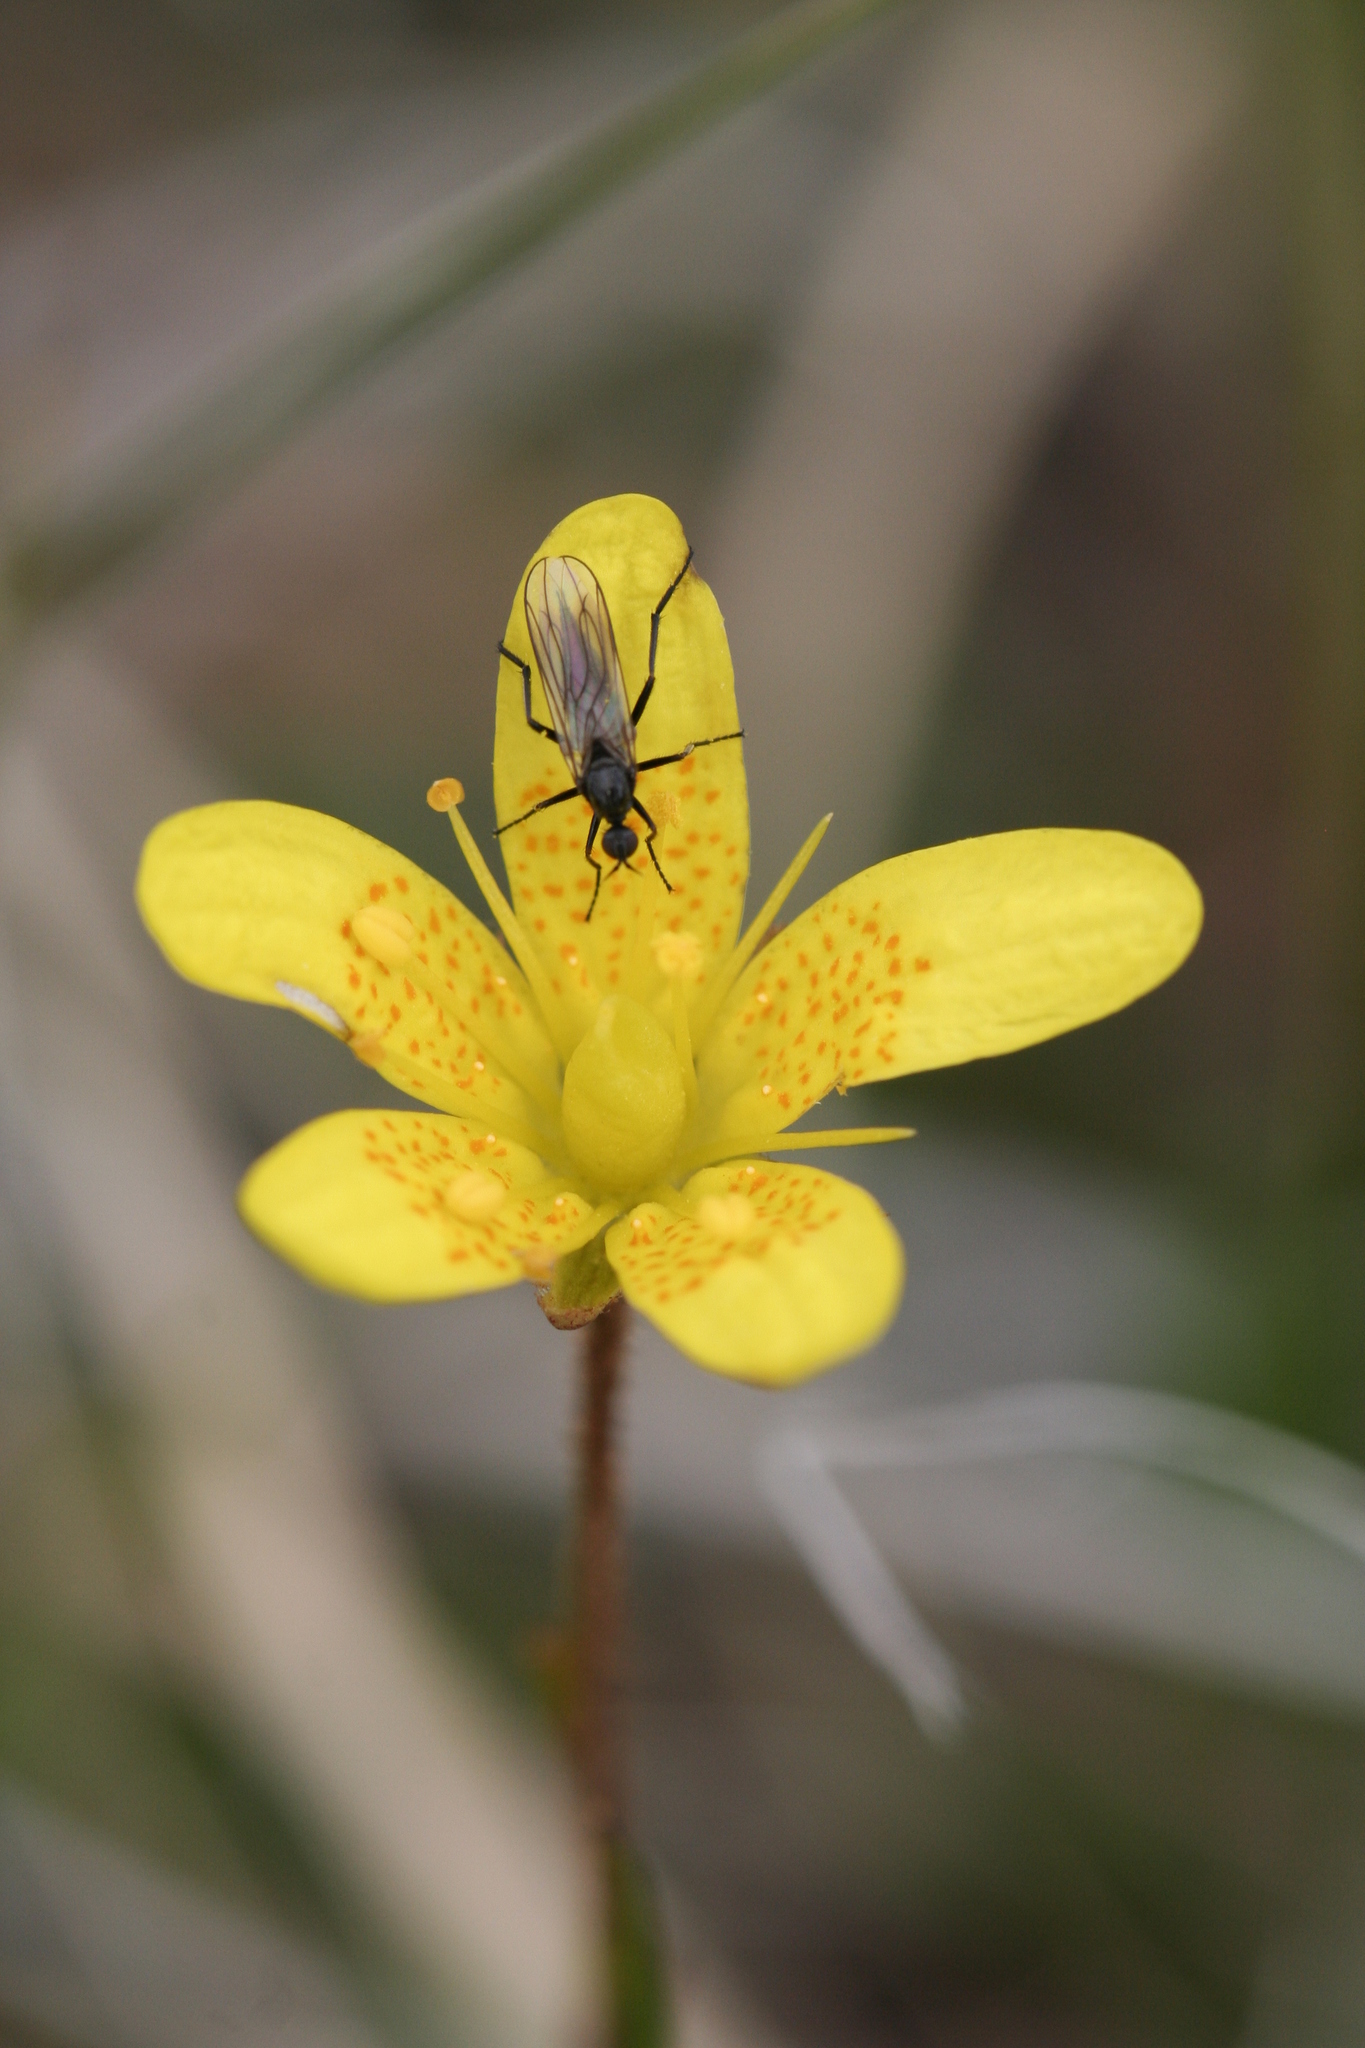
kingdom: Plantae
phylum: Tracheophyta
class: Magnoliopsida
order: Saxifragales
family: Saxifragaceae
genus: Saxifraga
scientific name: Saxifraga hirculus
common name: Yellow marsh saxifrage
